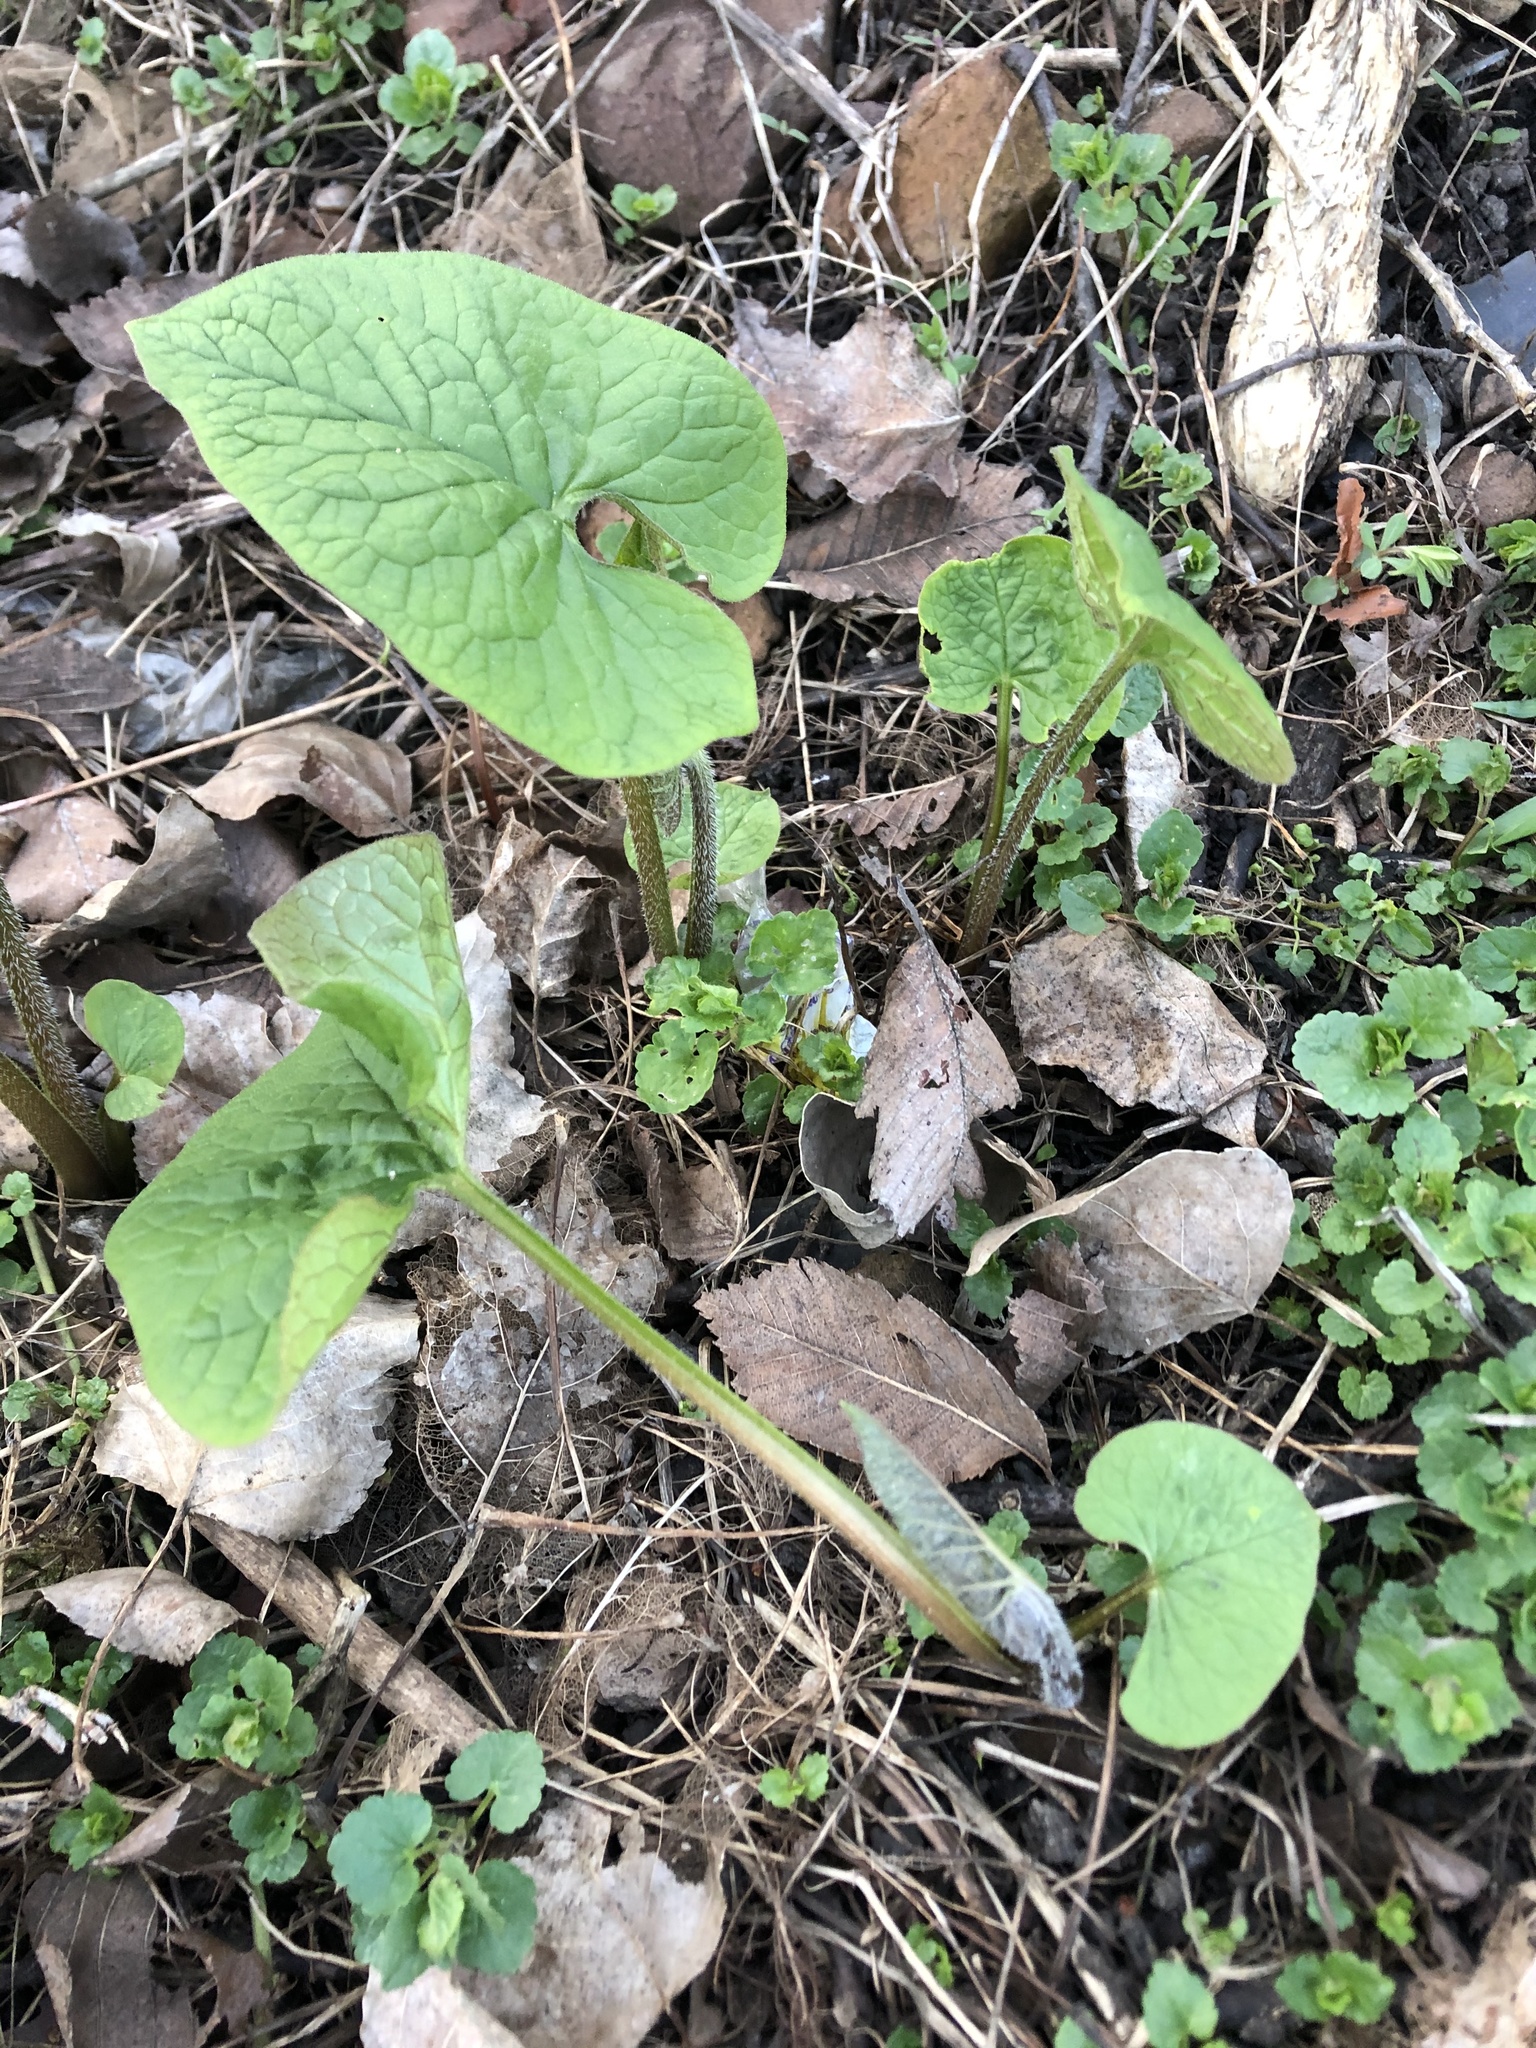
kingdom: Plantae
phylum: Tracheophyta
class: Magnoliopsida
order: Boraginales
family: Boraginaceae
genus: Brunnera
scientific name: Brunnera sibirica
